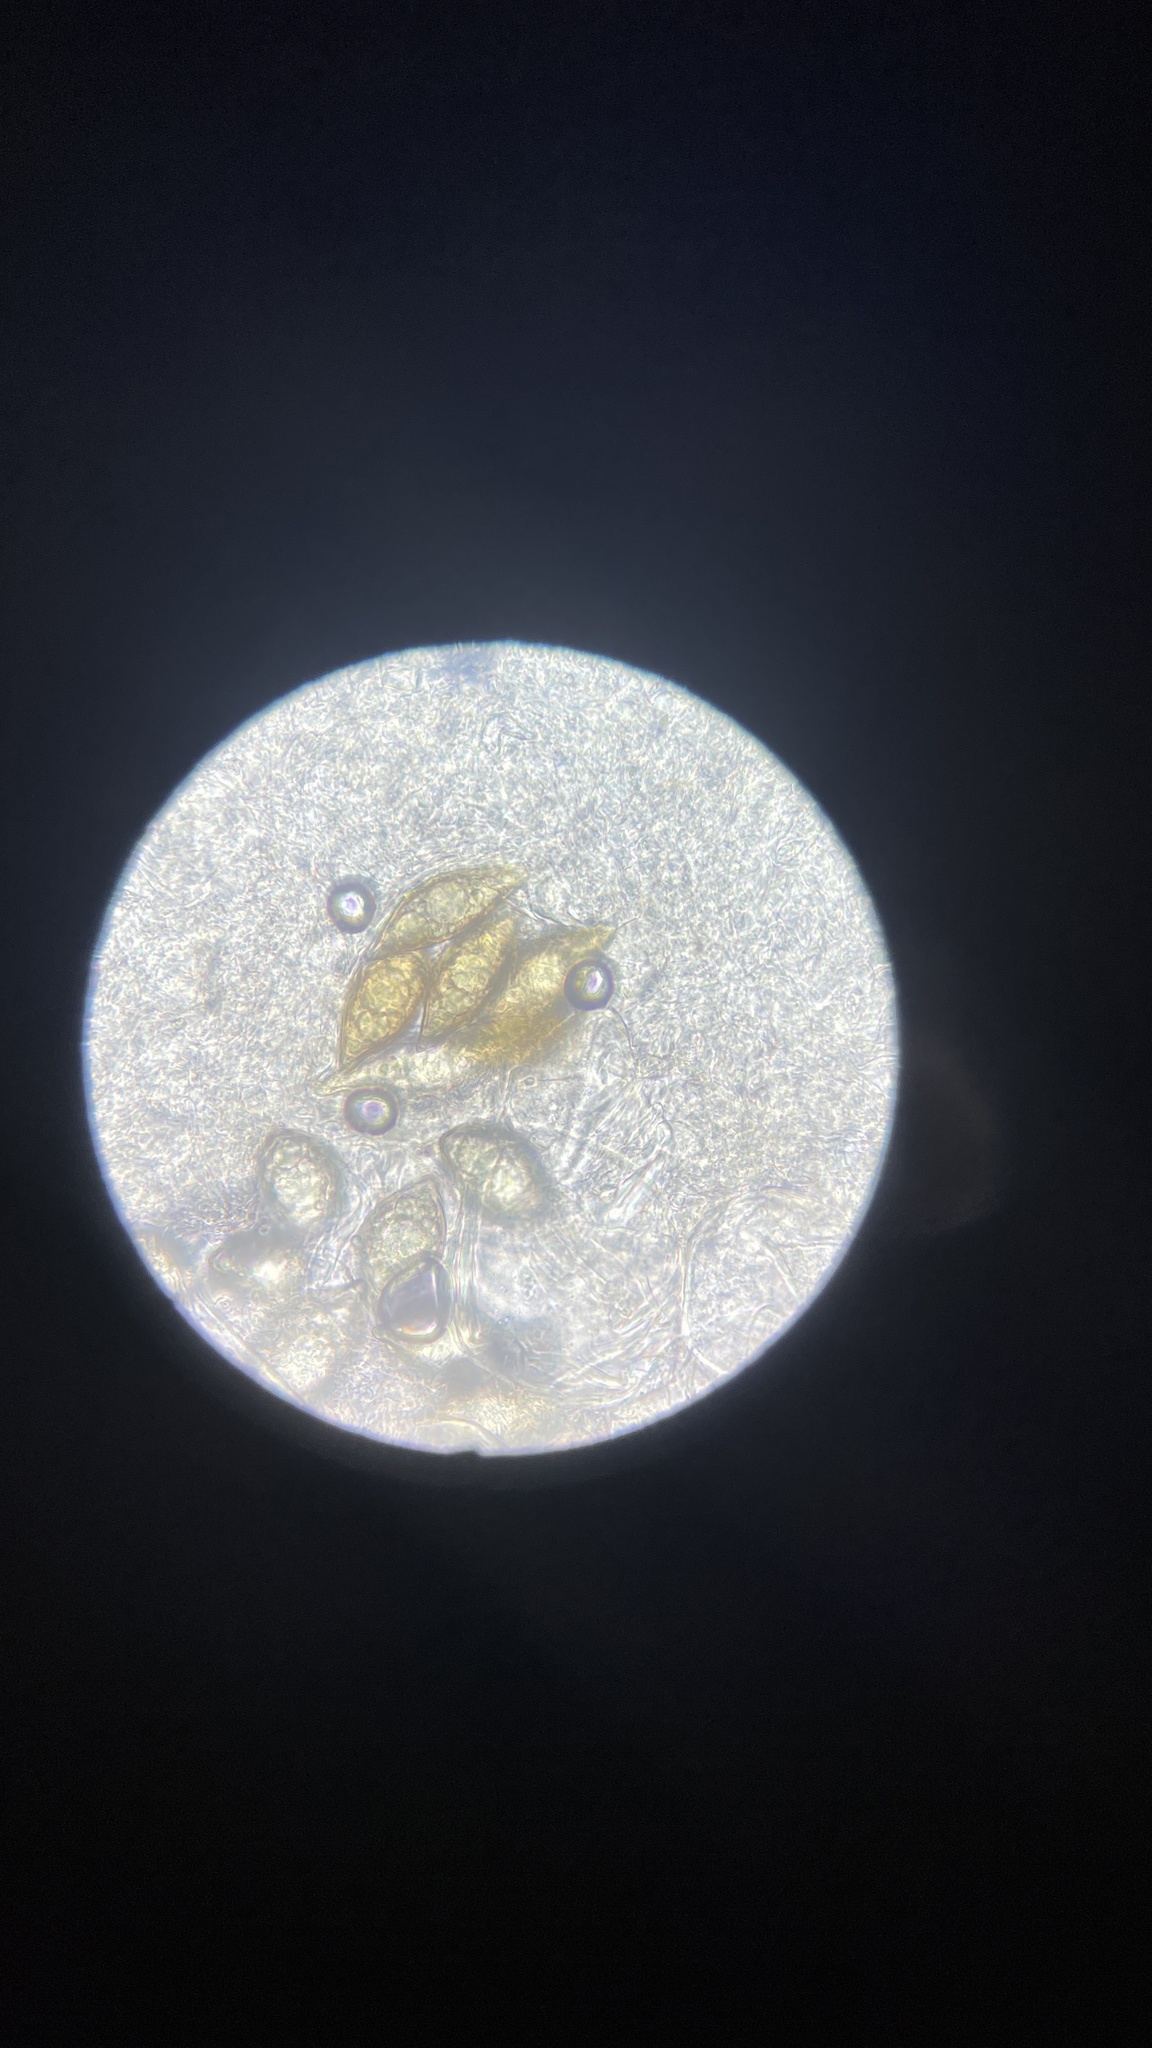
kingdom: Fungi
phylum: Ascomycota
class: Pezizomycetes
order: Pezizales
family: Morchellaceae
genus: Leucangium
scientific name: Leucangium carthusianum
